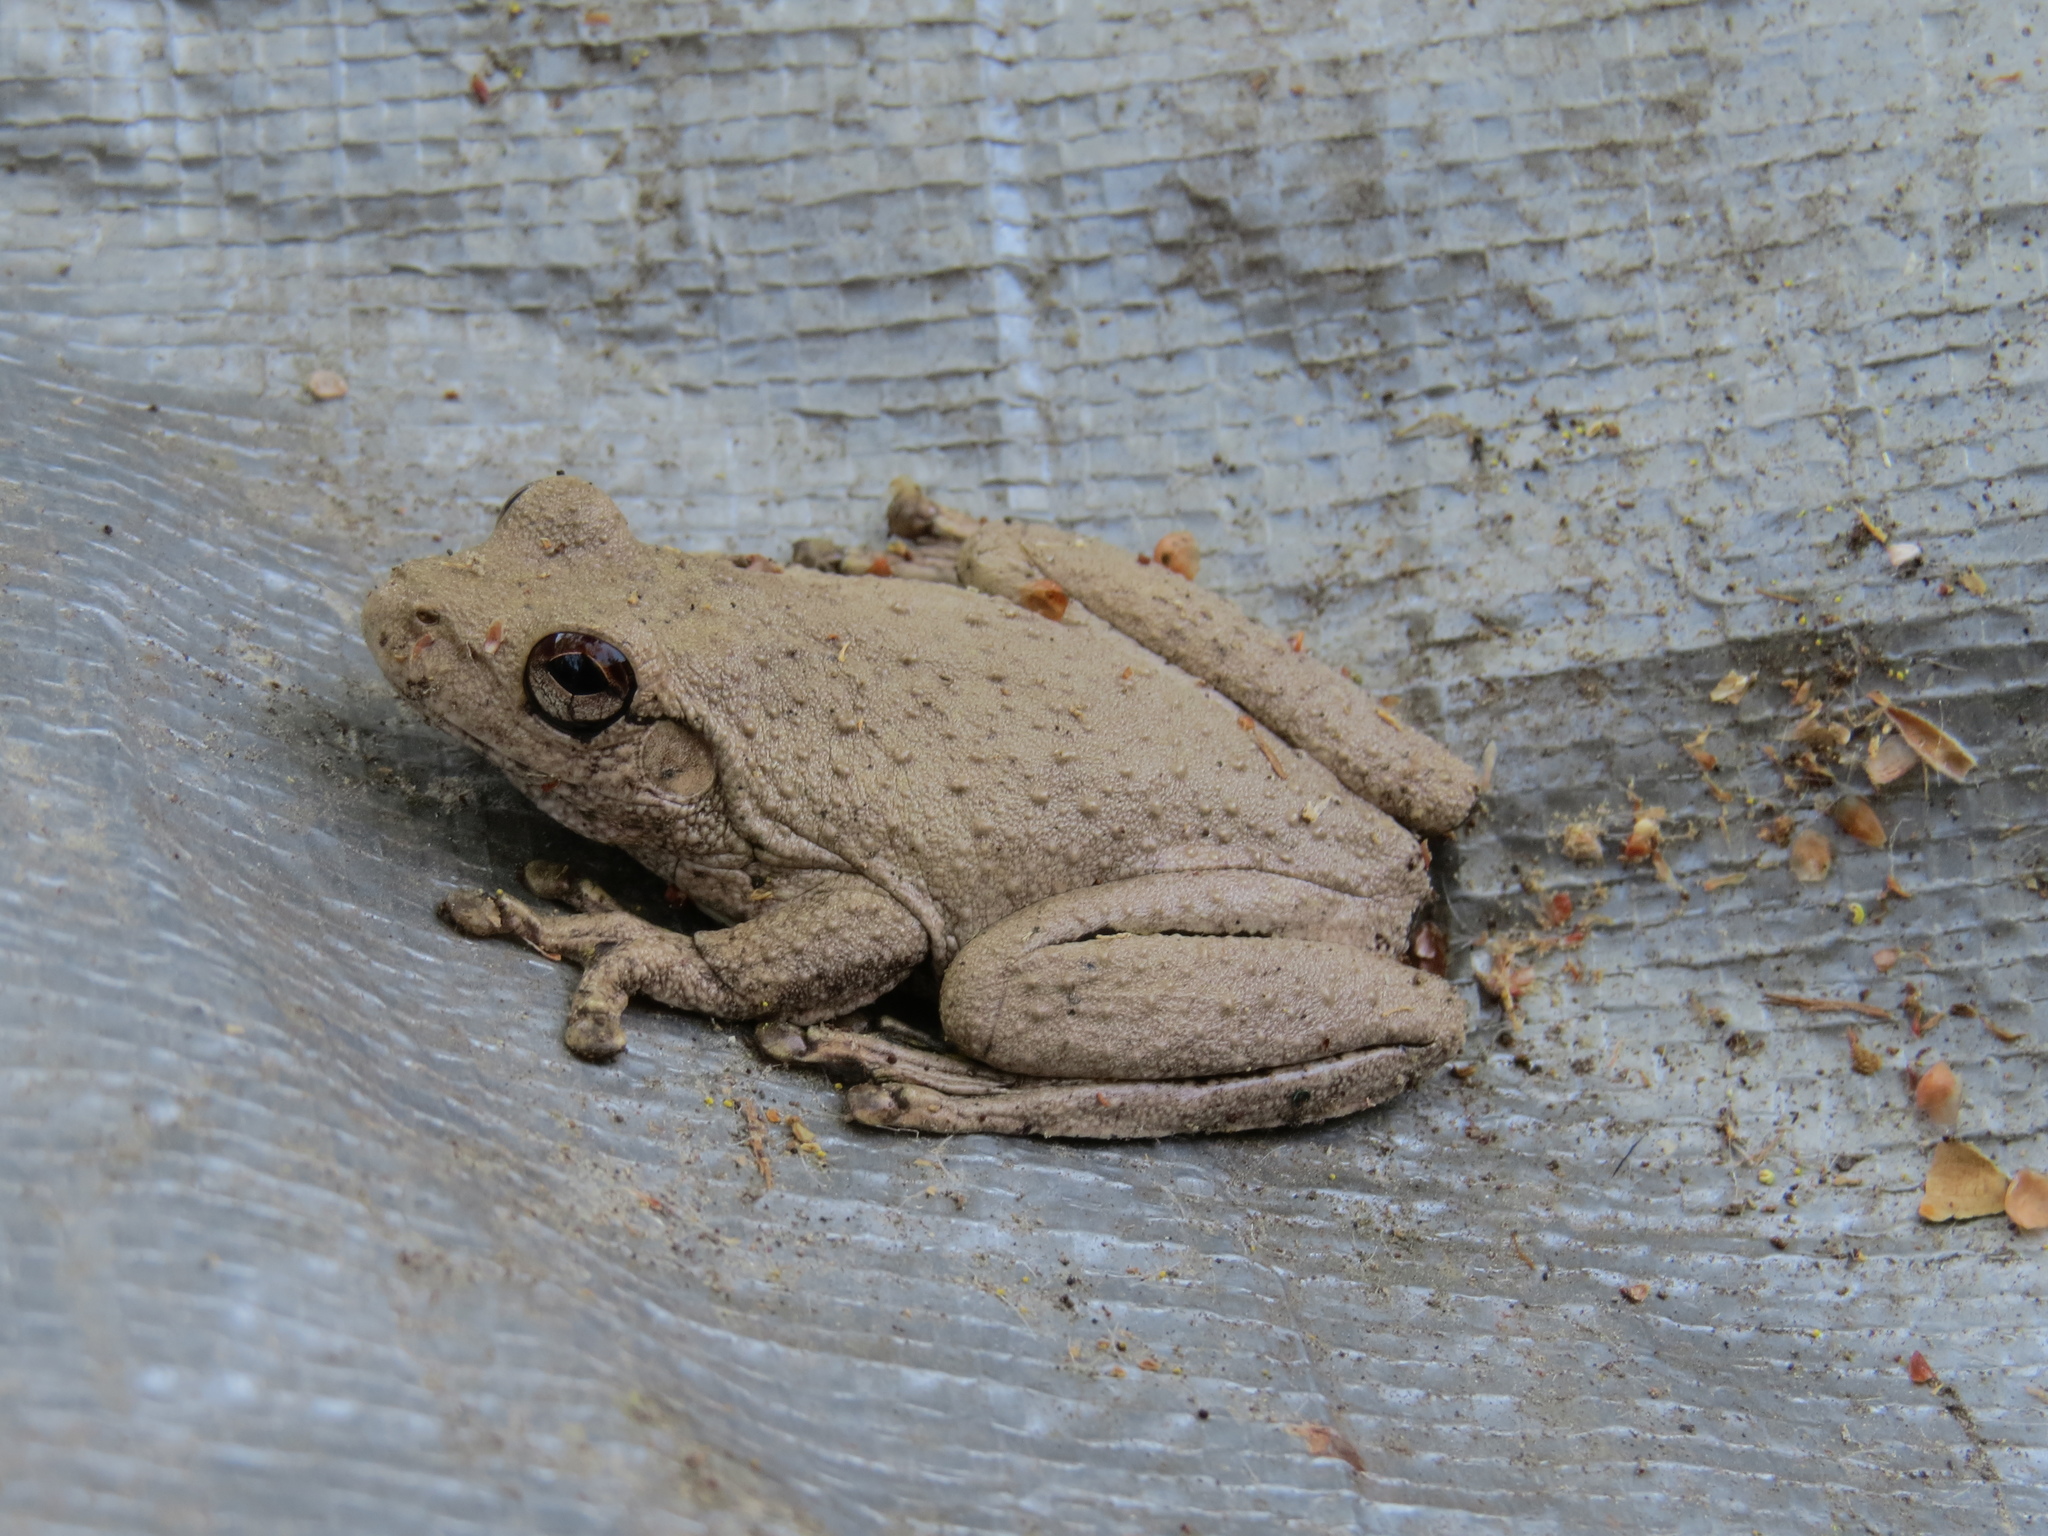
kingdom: Animalia
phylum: Chordata
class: Amphibia
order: Anura
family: Pelodryadidae
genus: Litoria
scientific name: Litoria rothii
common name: Roth’s tree frog
